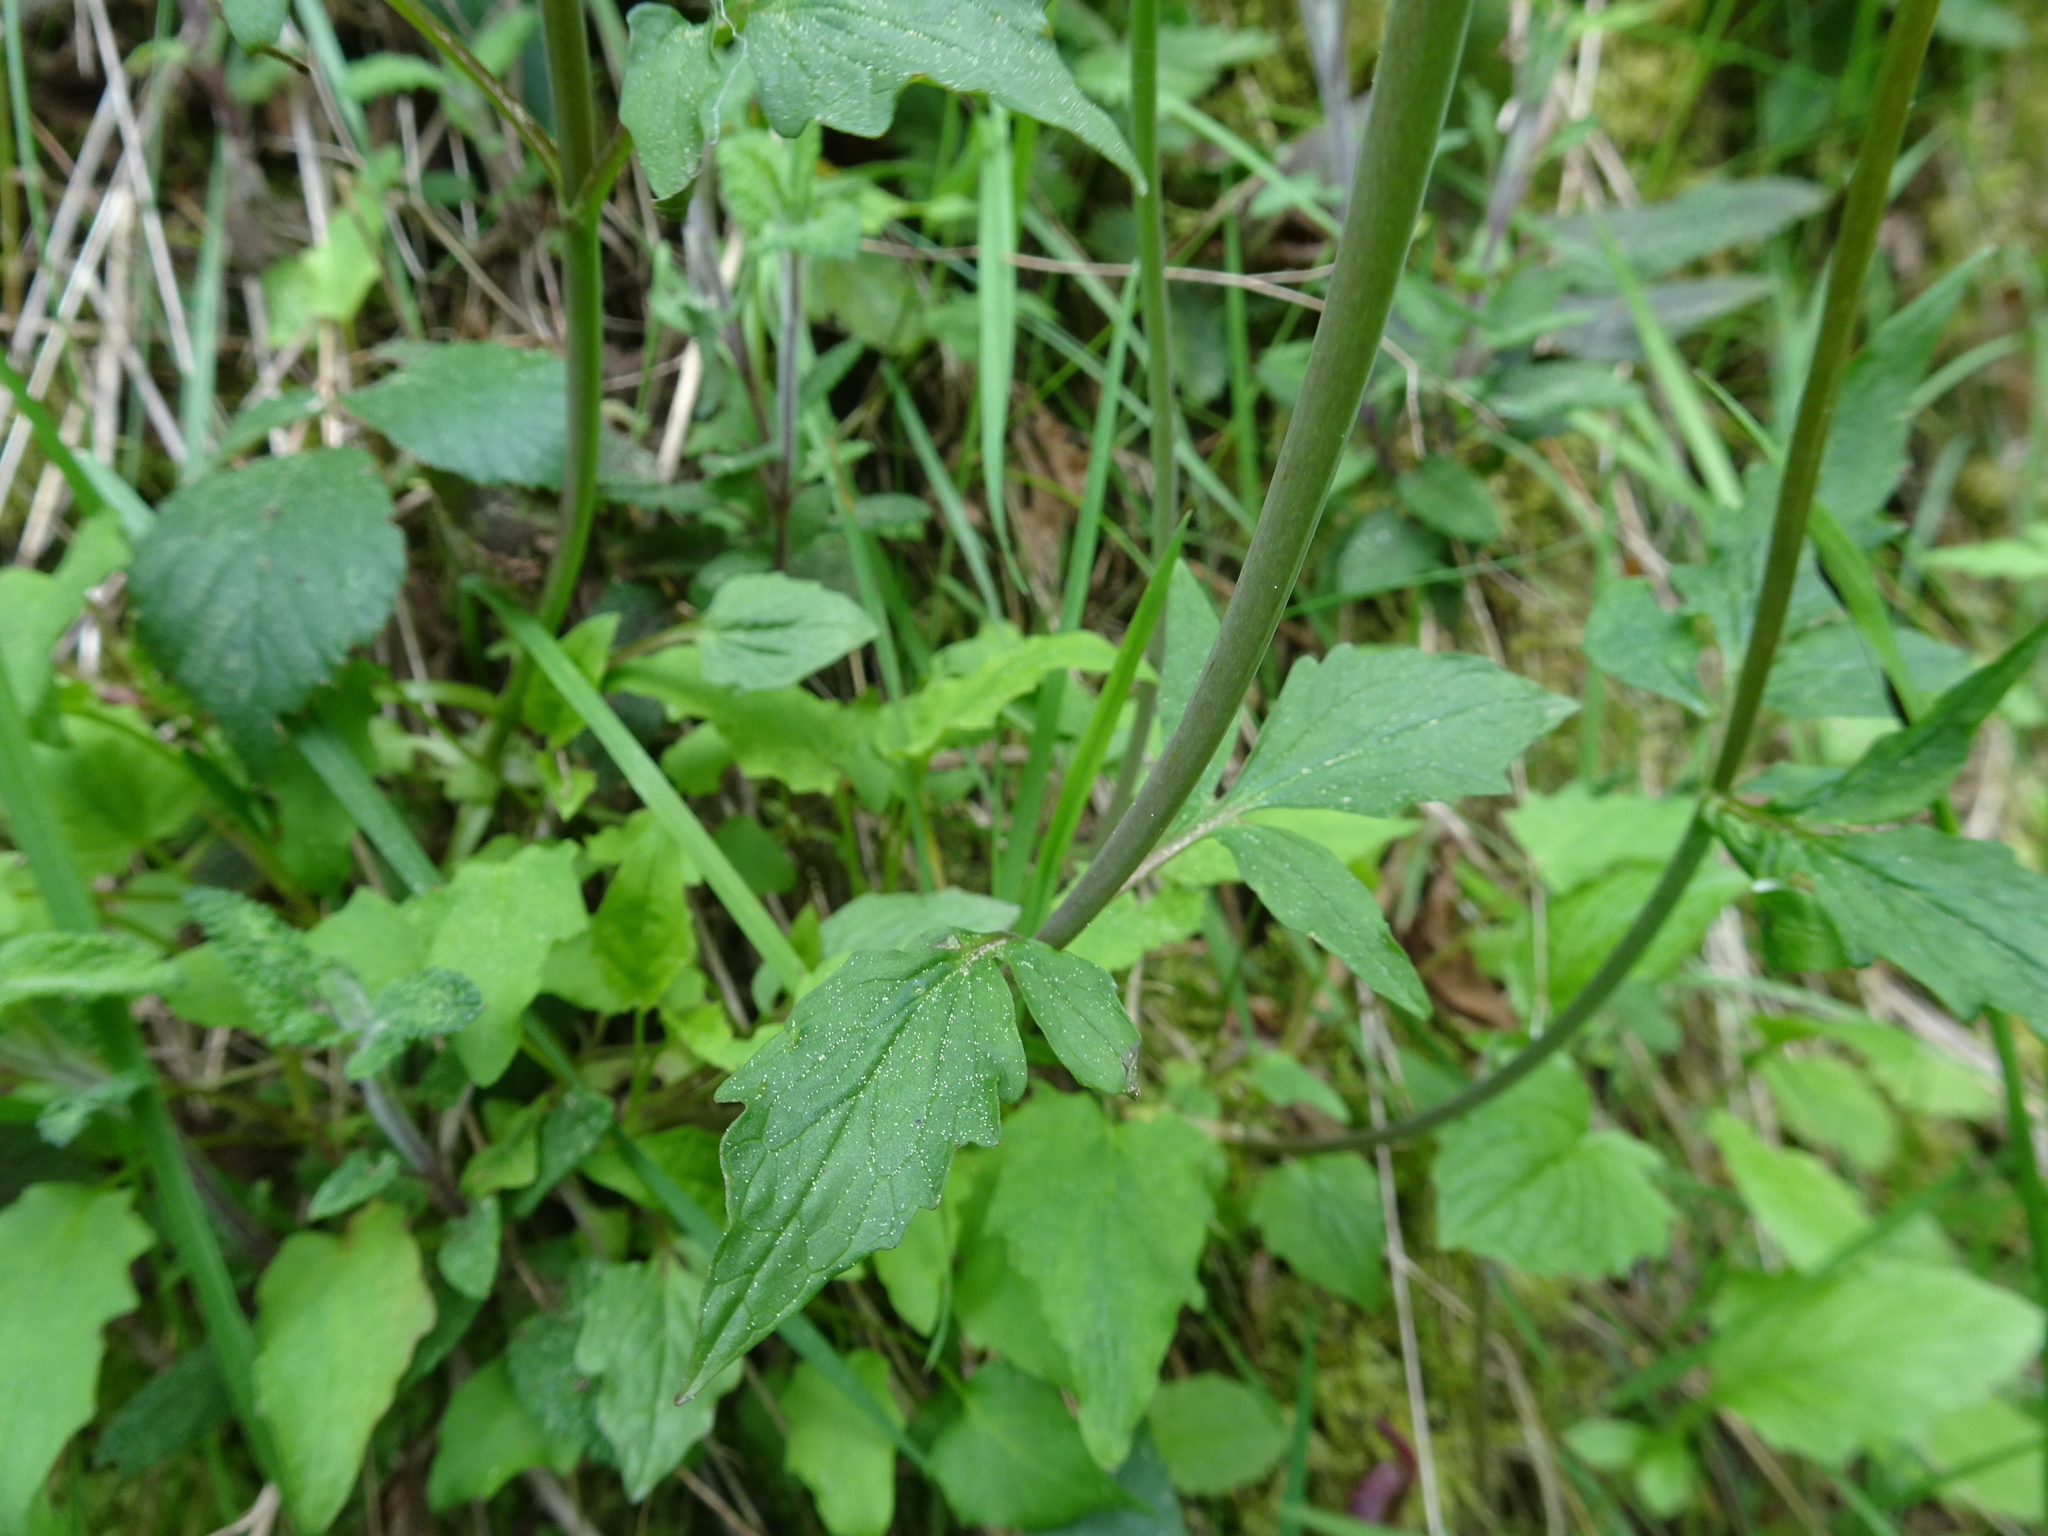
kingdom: Plantae
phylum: Tracheophyta
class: Magnoliopsida
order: Dipsacales
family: Caprifoliaceae
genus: Valeriana
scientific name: Valeriana tripteris
